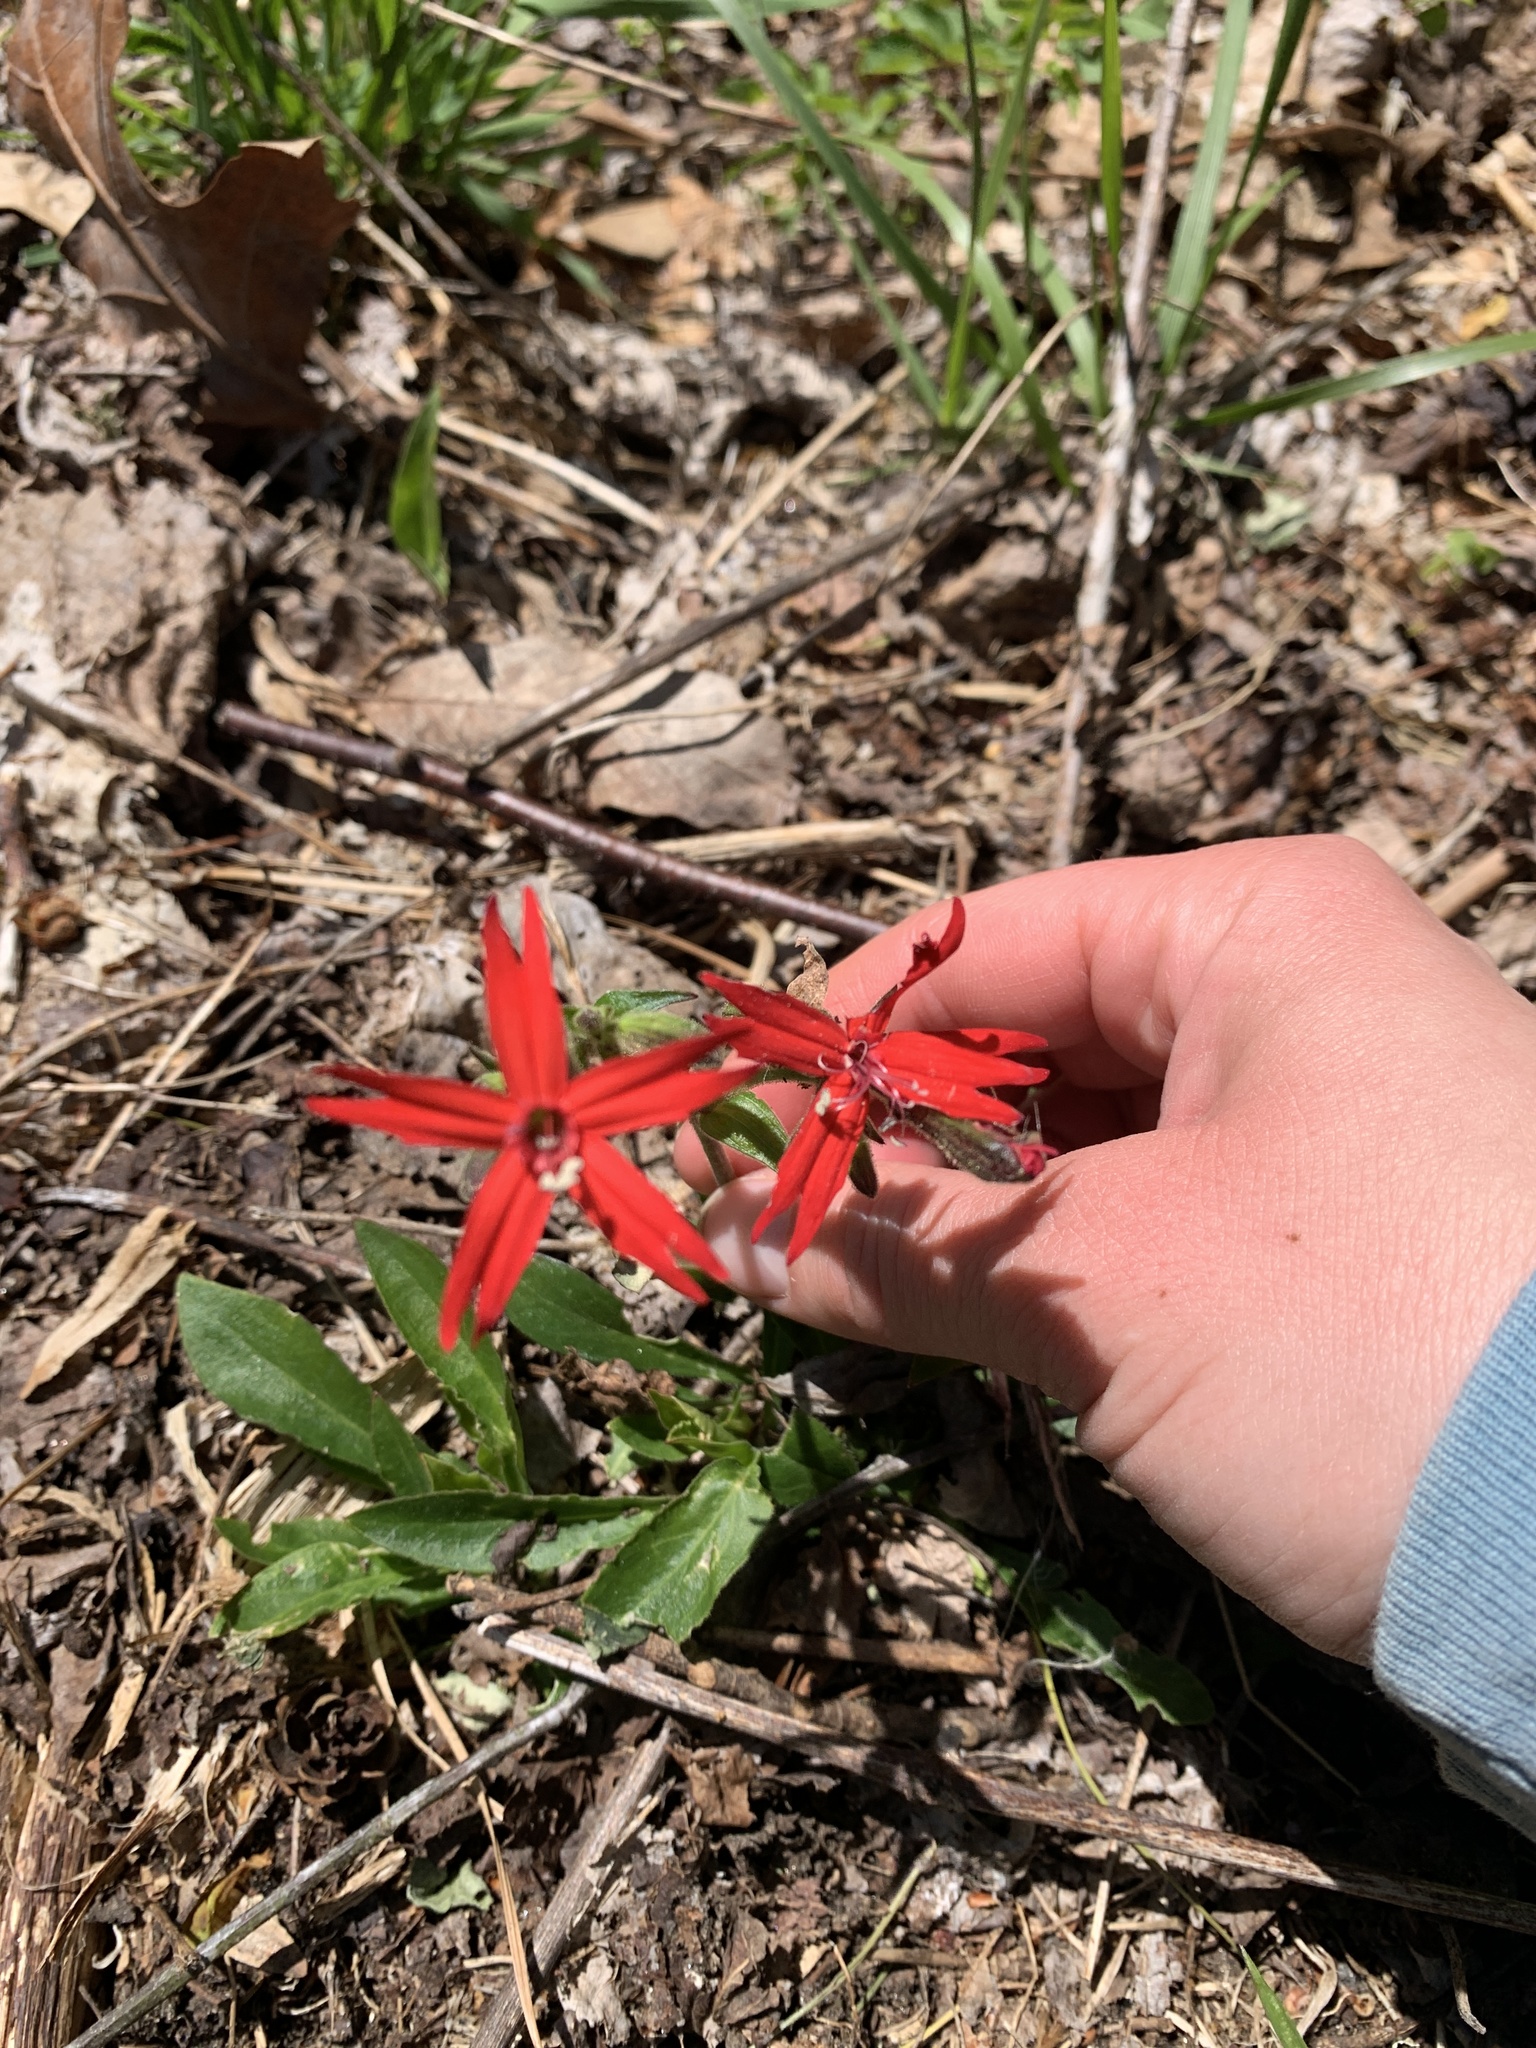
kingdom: Plantae
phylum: Tracheophyta
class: Magnoliopsida
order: Caryophyllales
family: Caryophyllaceae
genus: Silene
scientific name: Silene virginica
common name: Fire-pink
